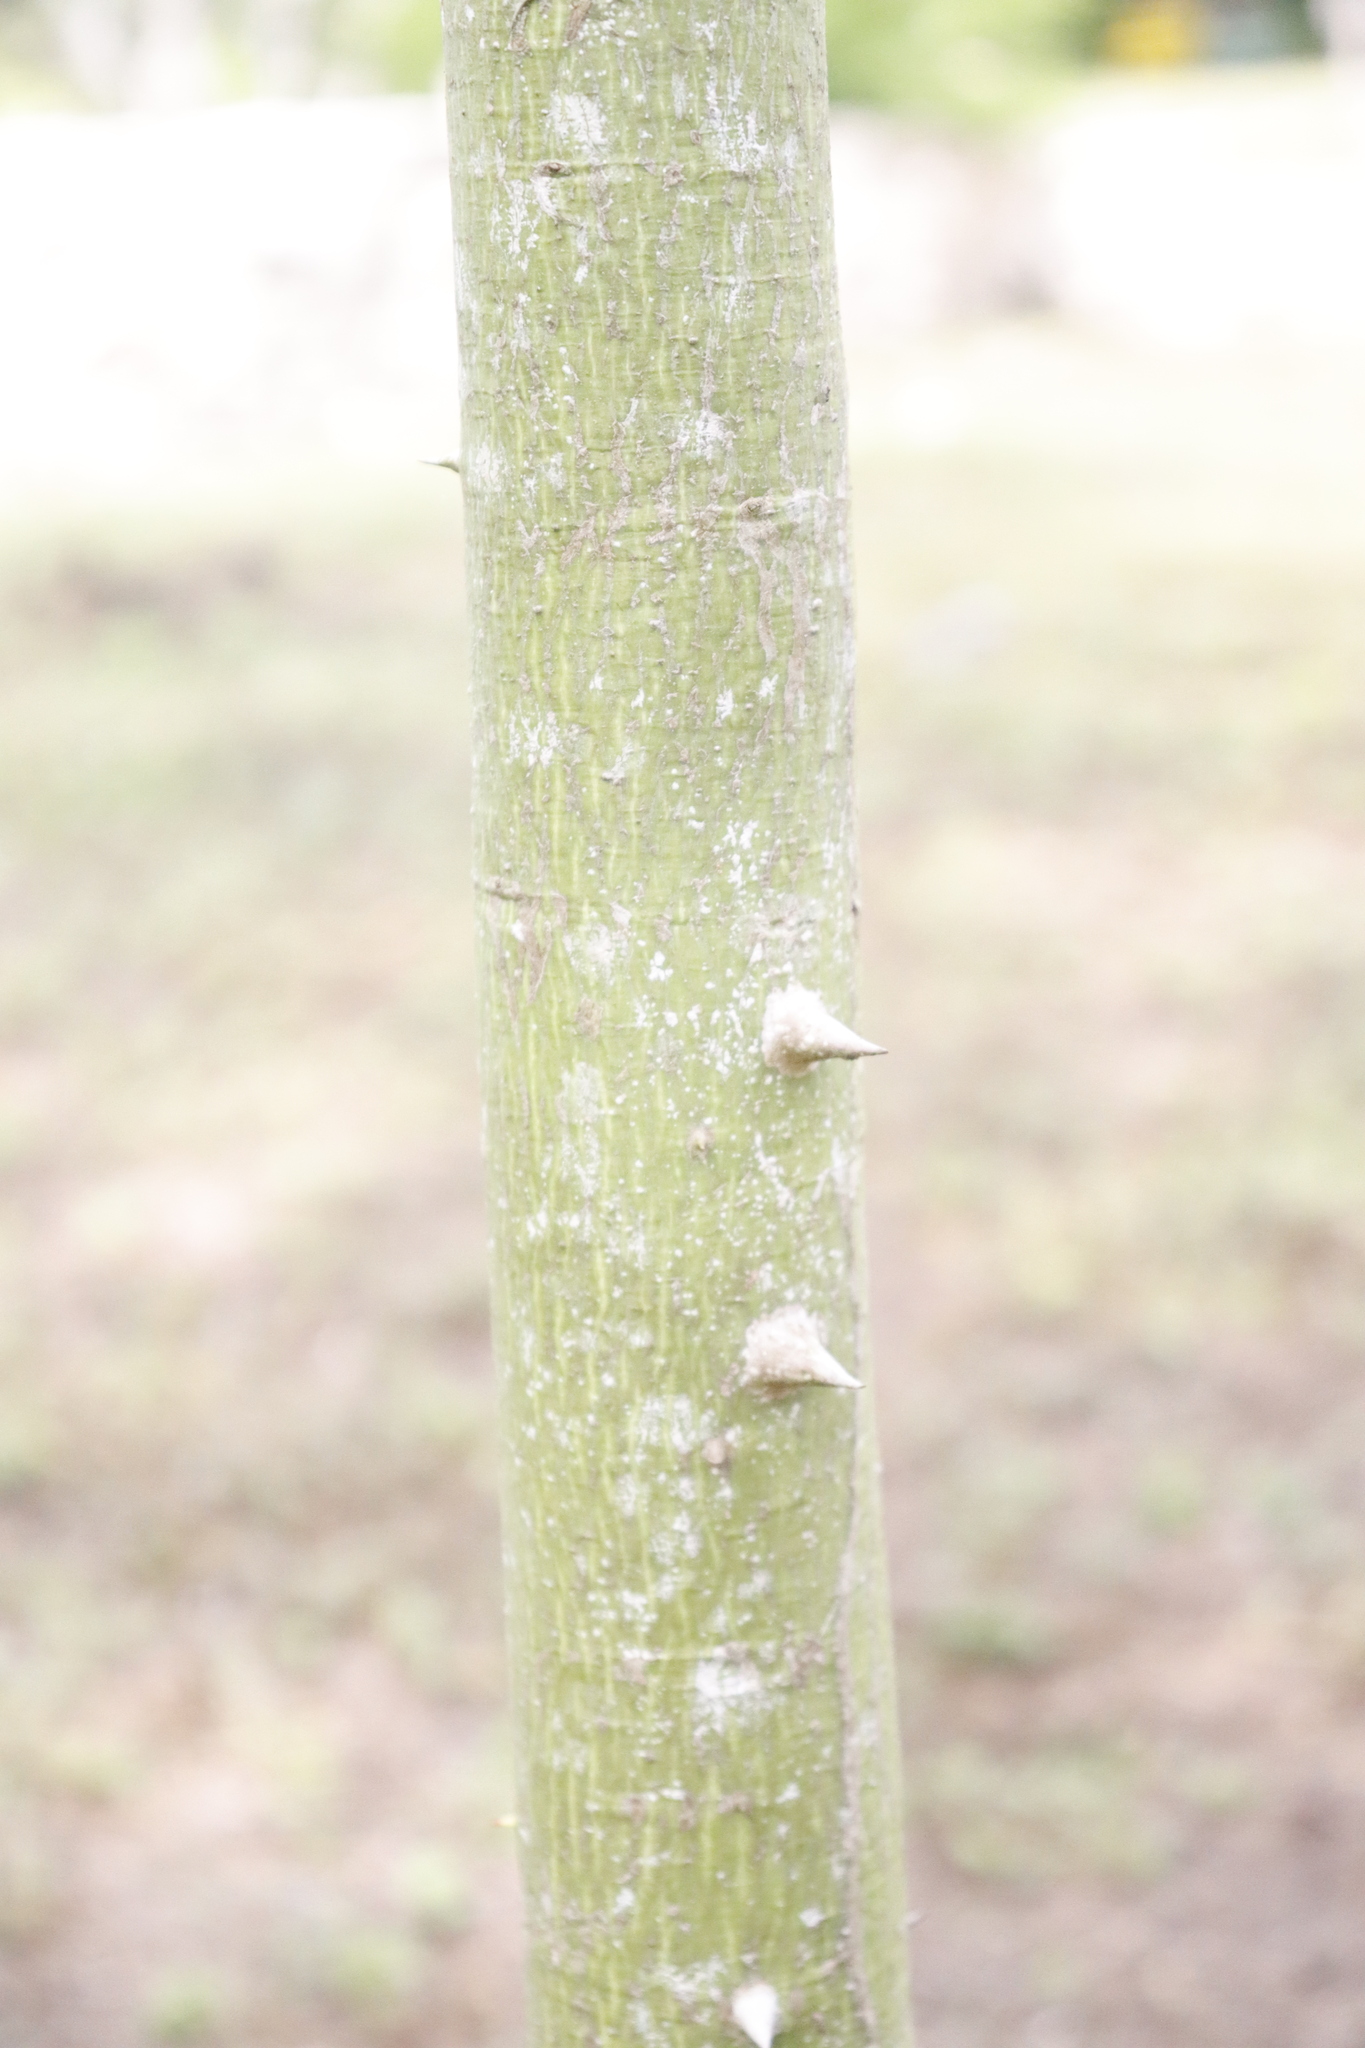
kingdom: Plantae
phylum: Tracheophyta
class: Magnoliopsida
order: Malvales
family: Malvaceae
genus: Ceiba
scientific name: Ceiba pentandra
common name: Kapok
